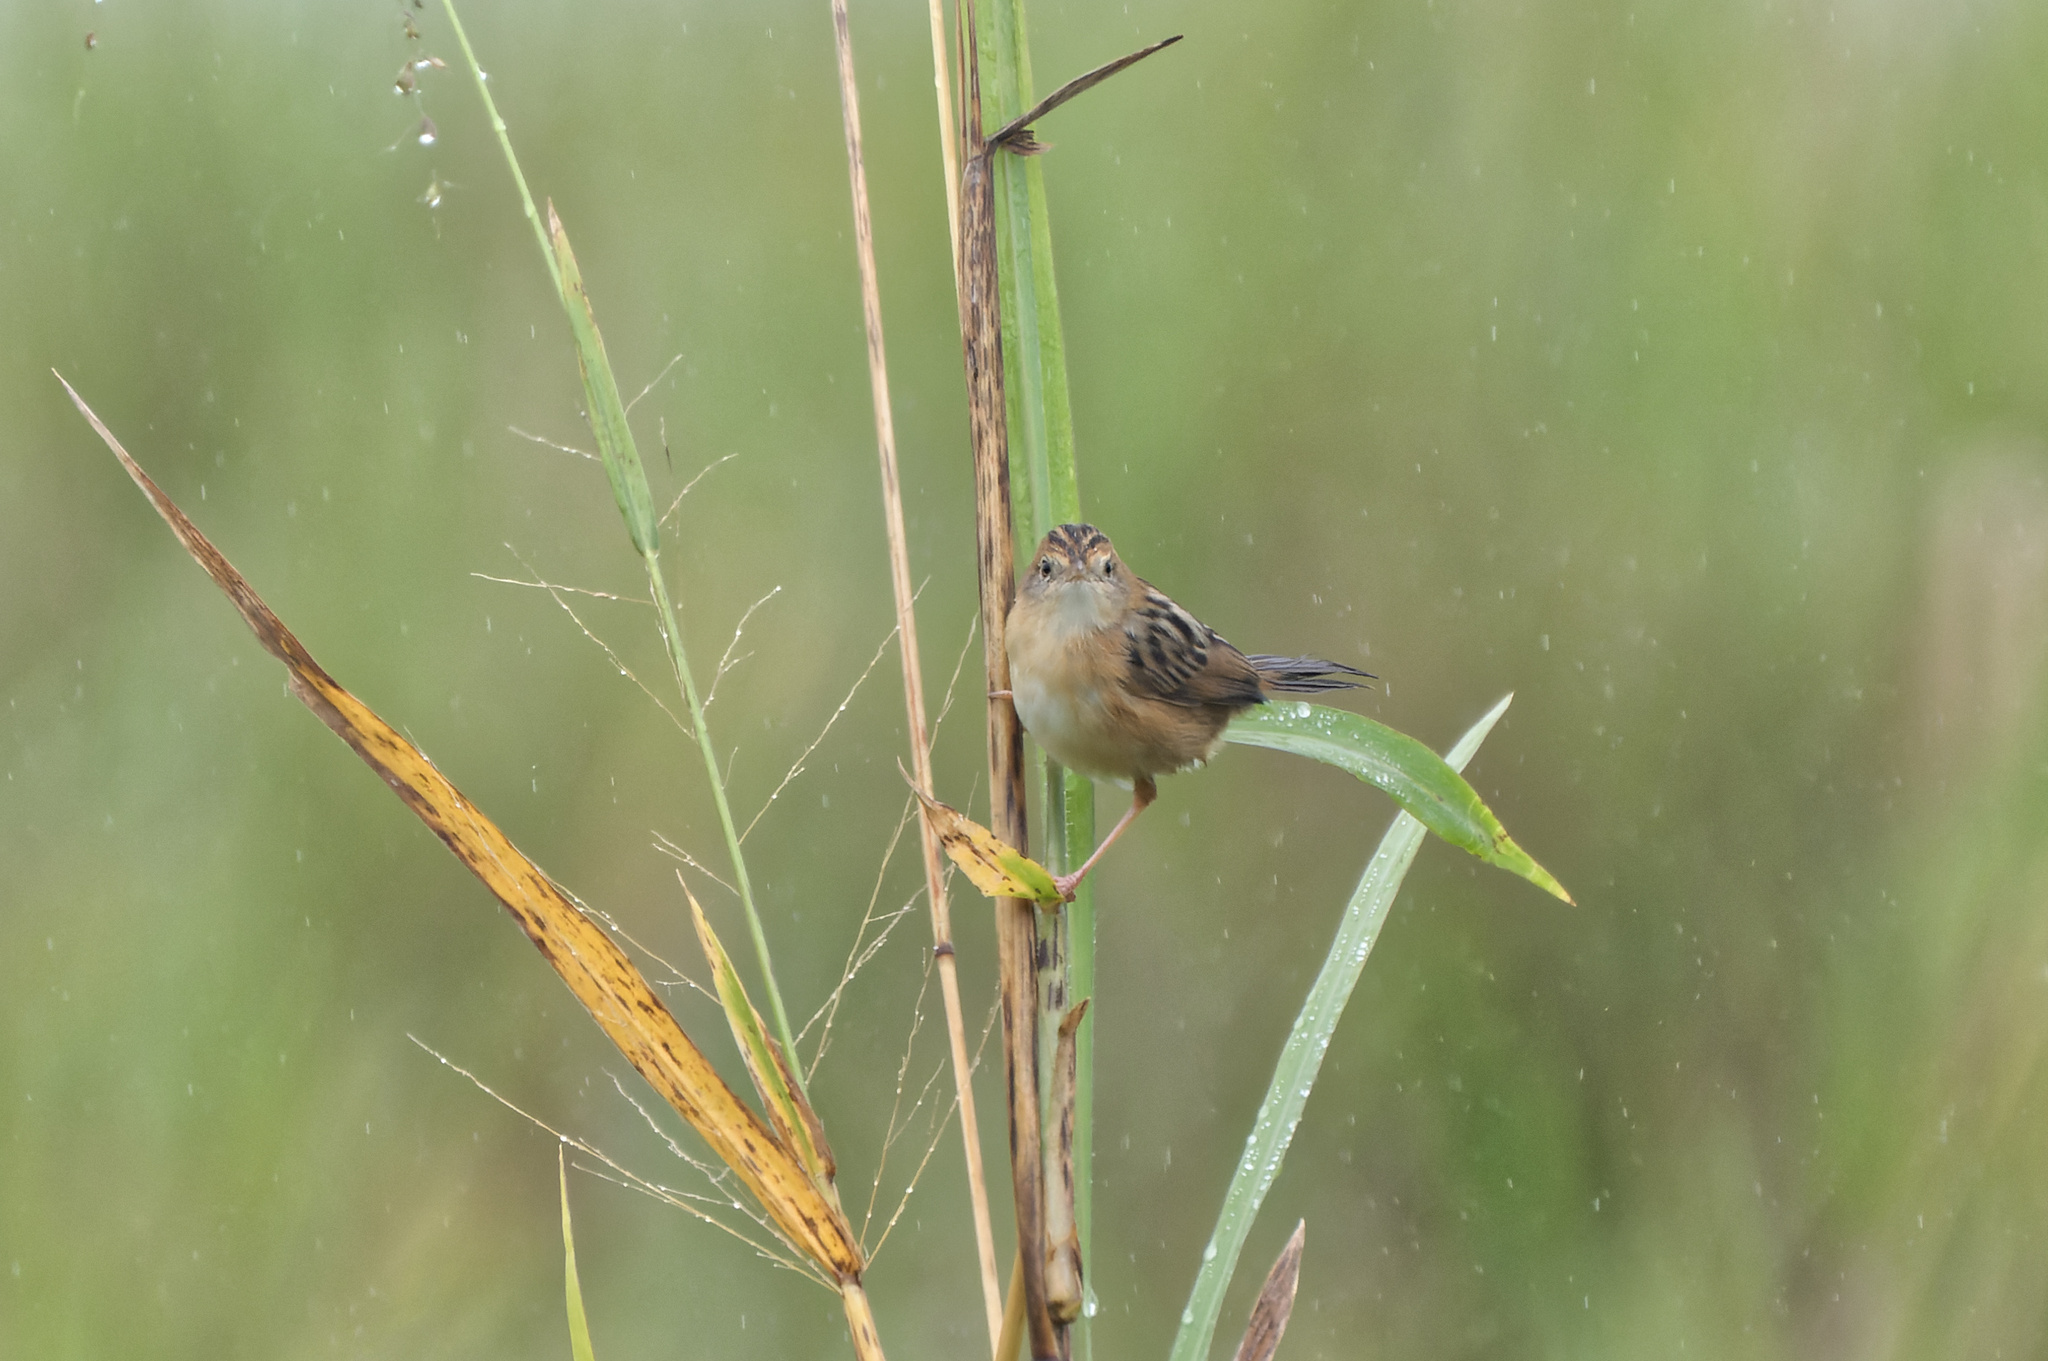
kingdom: Animalia
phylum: Chordata
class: Aves
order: Passeriformes
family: Cisticolidae
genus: Cisticola
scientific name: Cisticola exilis
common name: Golden-headed cisticola
